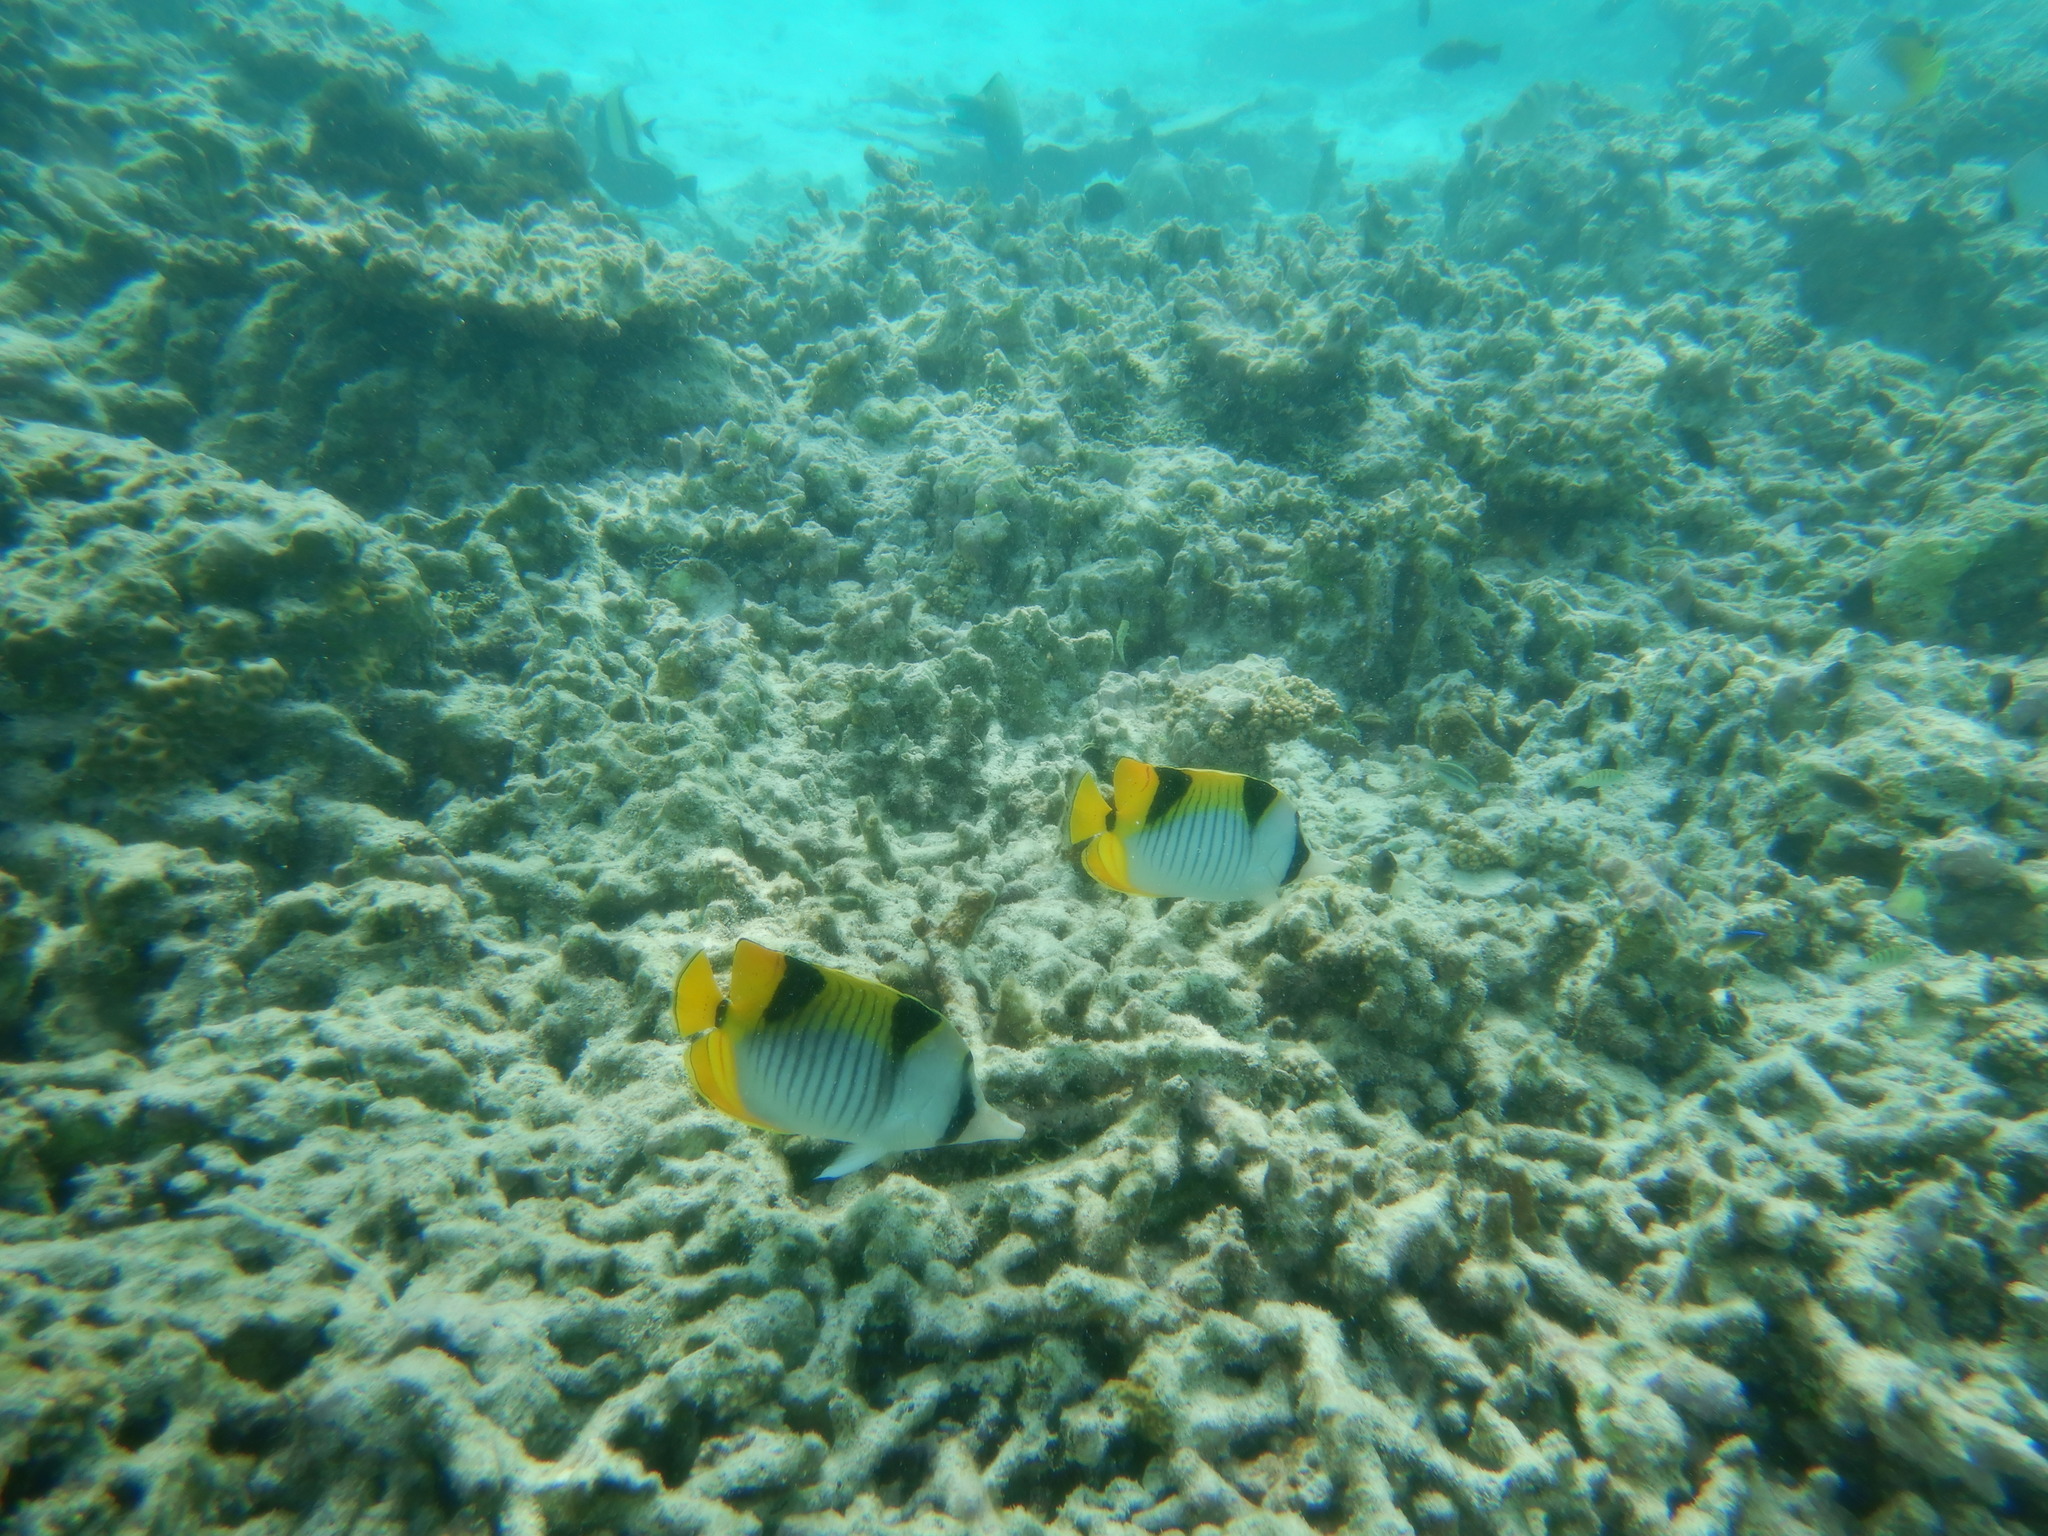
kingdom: Animalia
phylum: Chordata
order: Perciformes
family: Chaetodontidae
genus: Chaetodon
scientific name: Chaetodon falcula
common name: Blackwedged butterflyfish
